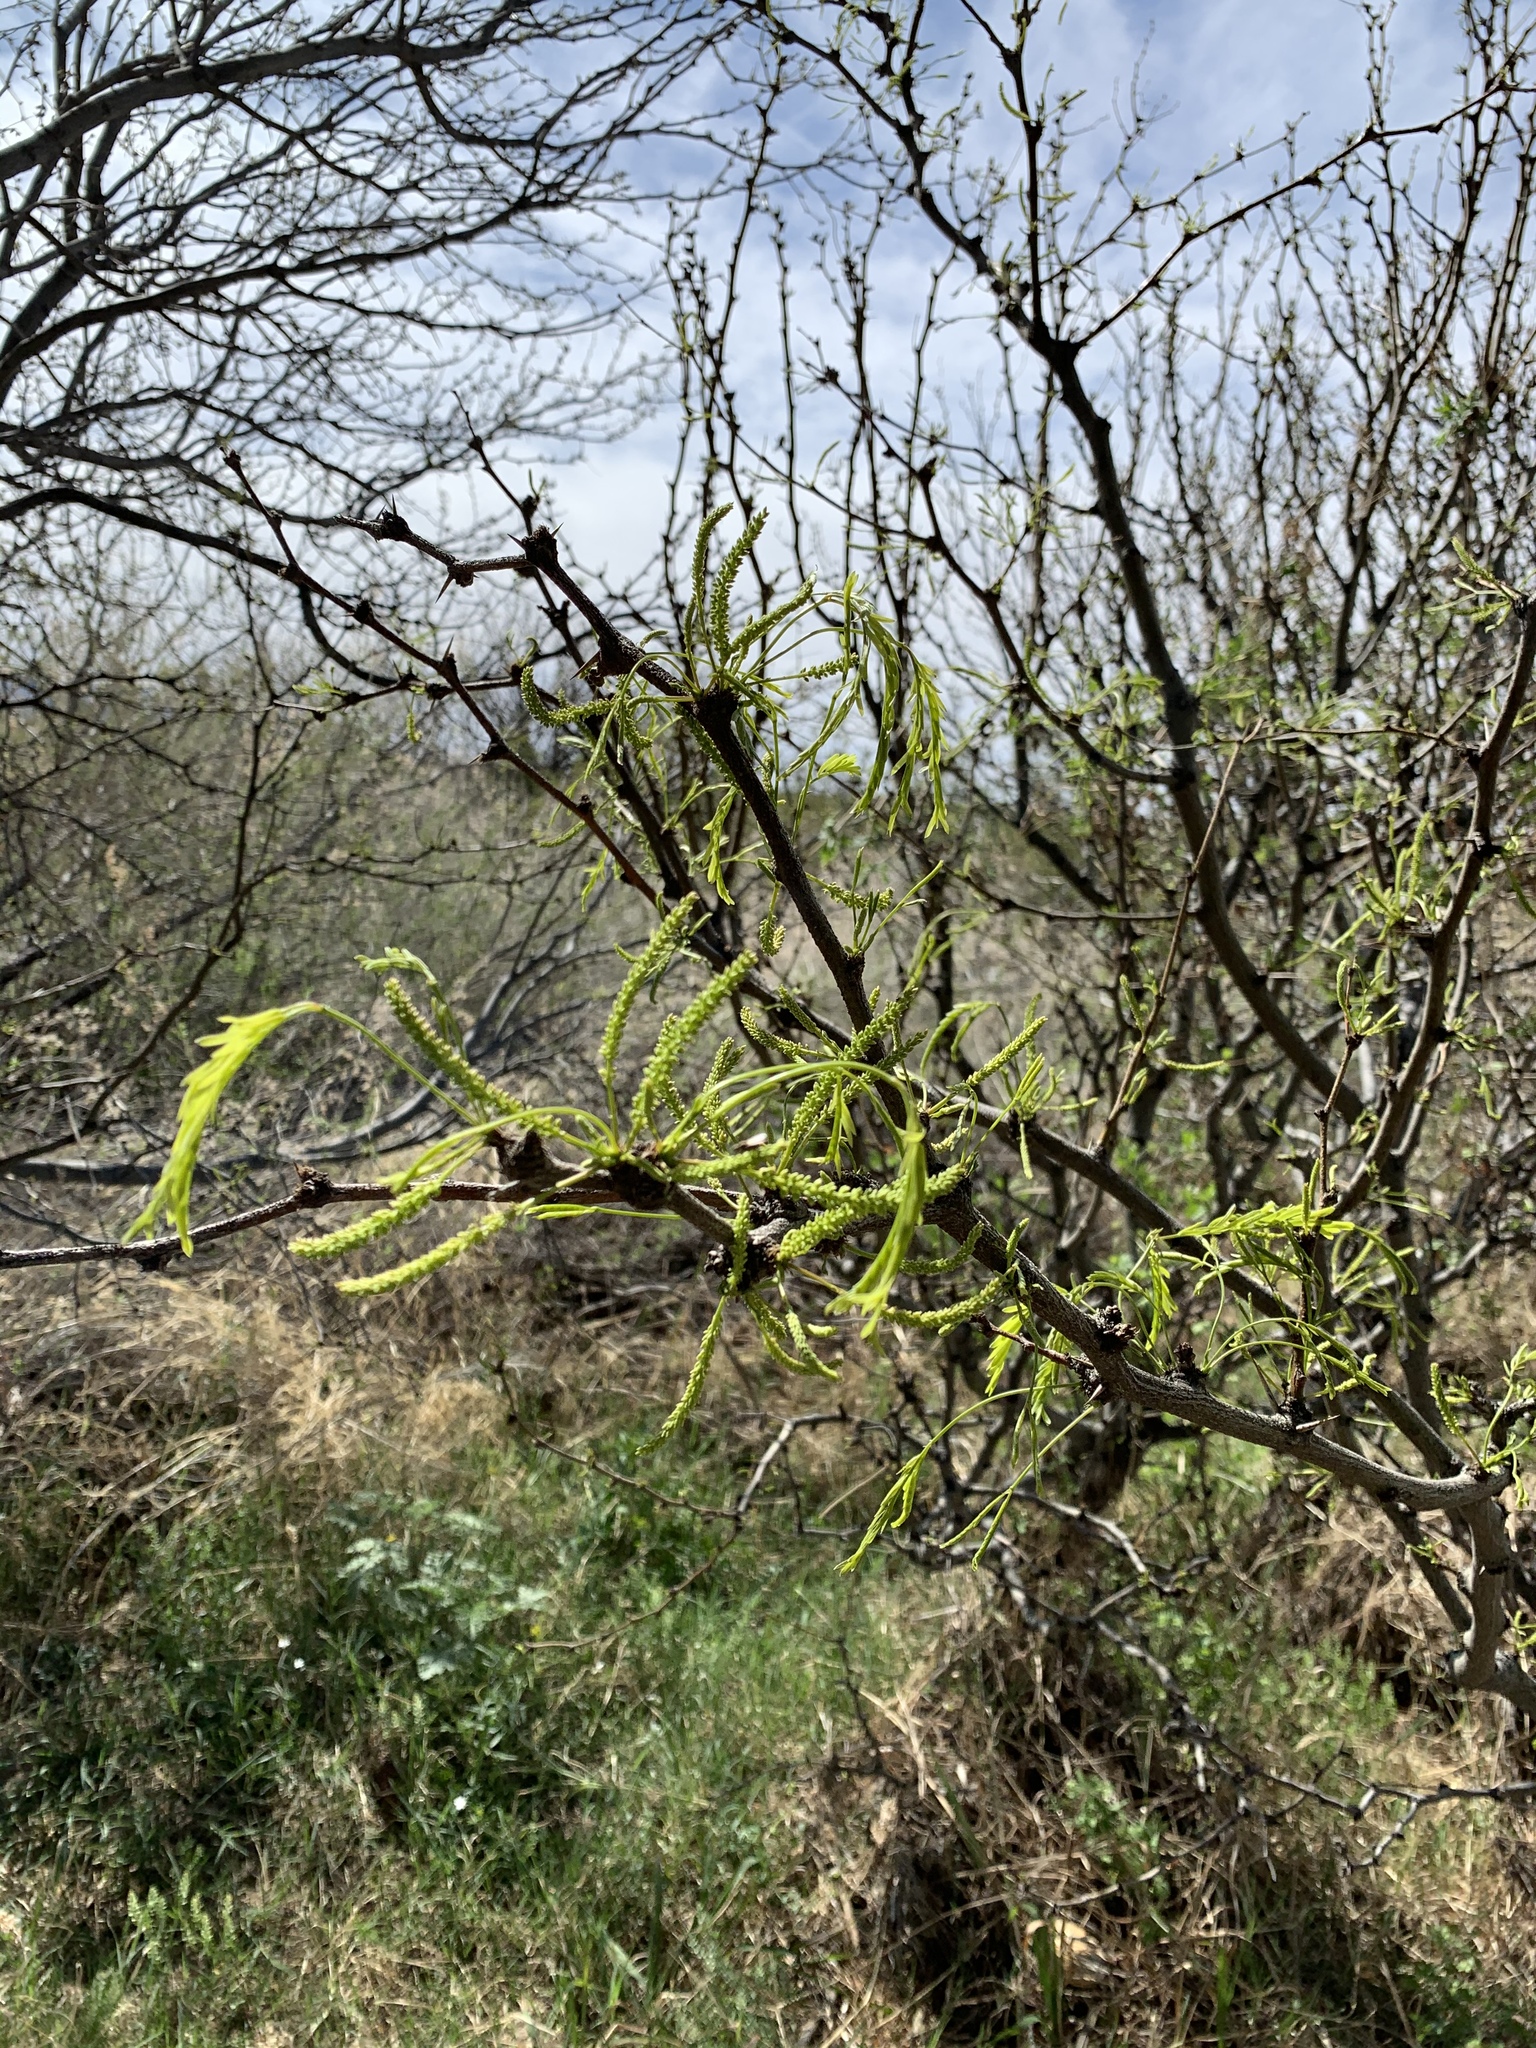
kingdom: Plantae
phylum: Tracheophyta
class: Magnoliopsida
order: Fabales
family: Fabaceae
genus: Prosopis
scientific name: Prosopis glandulosa
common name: Honey mesquite
